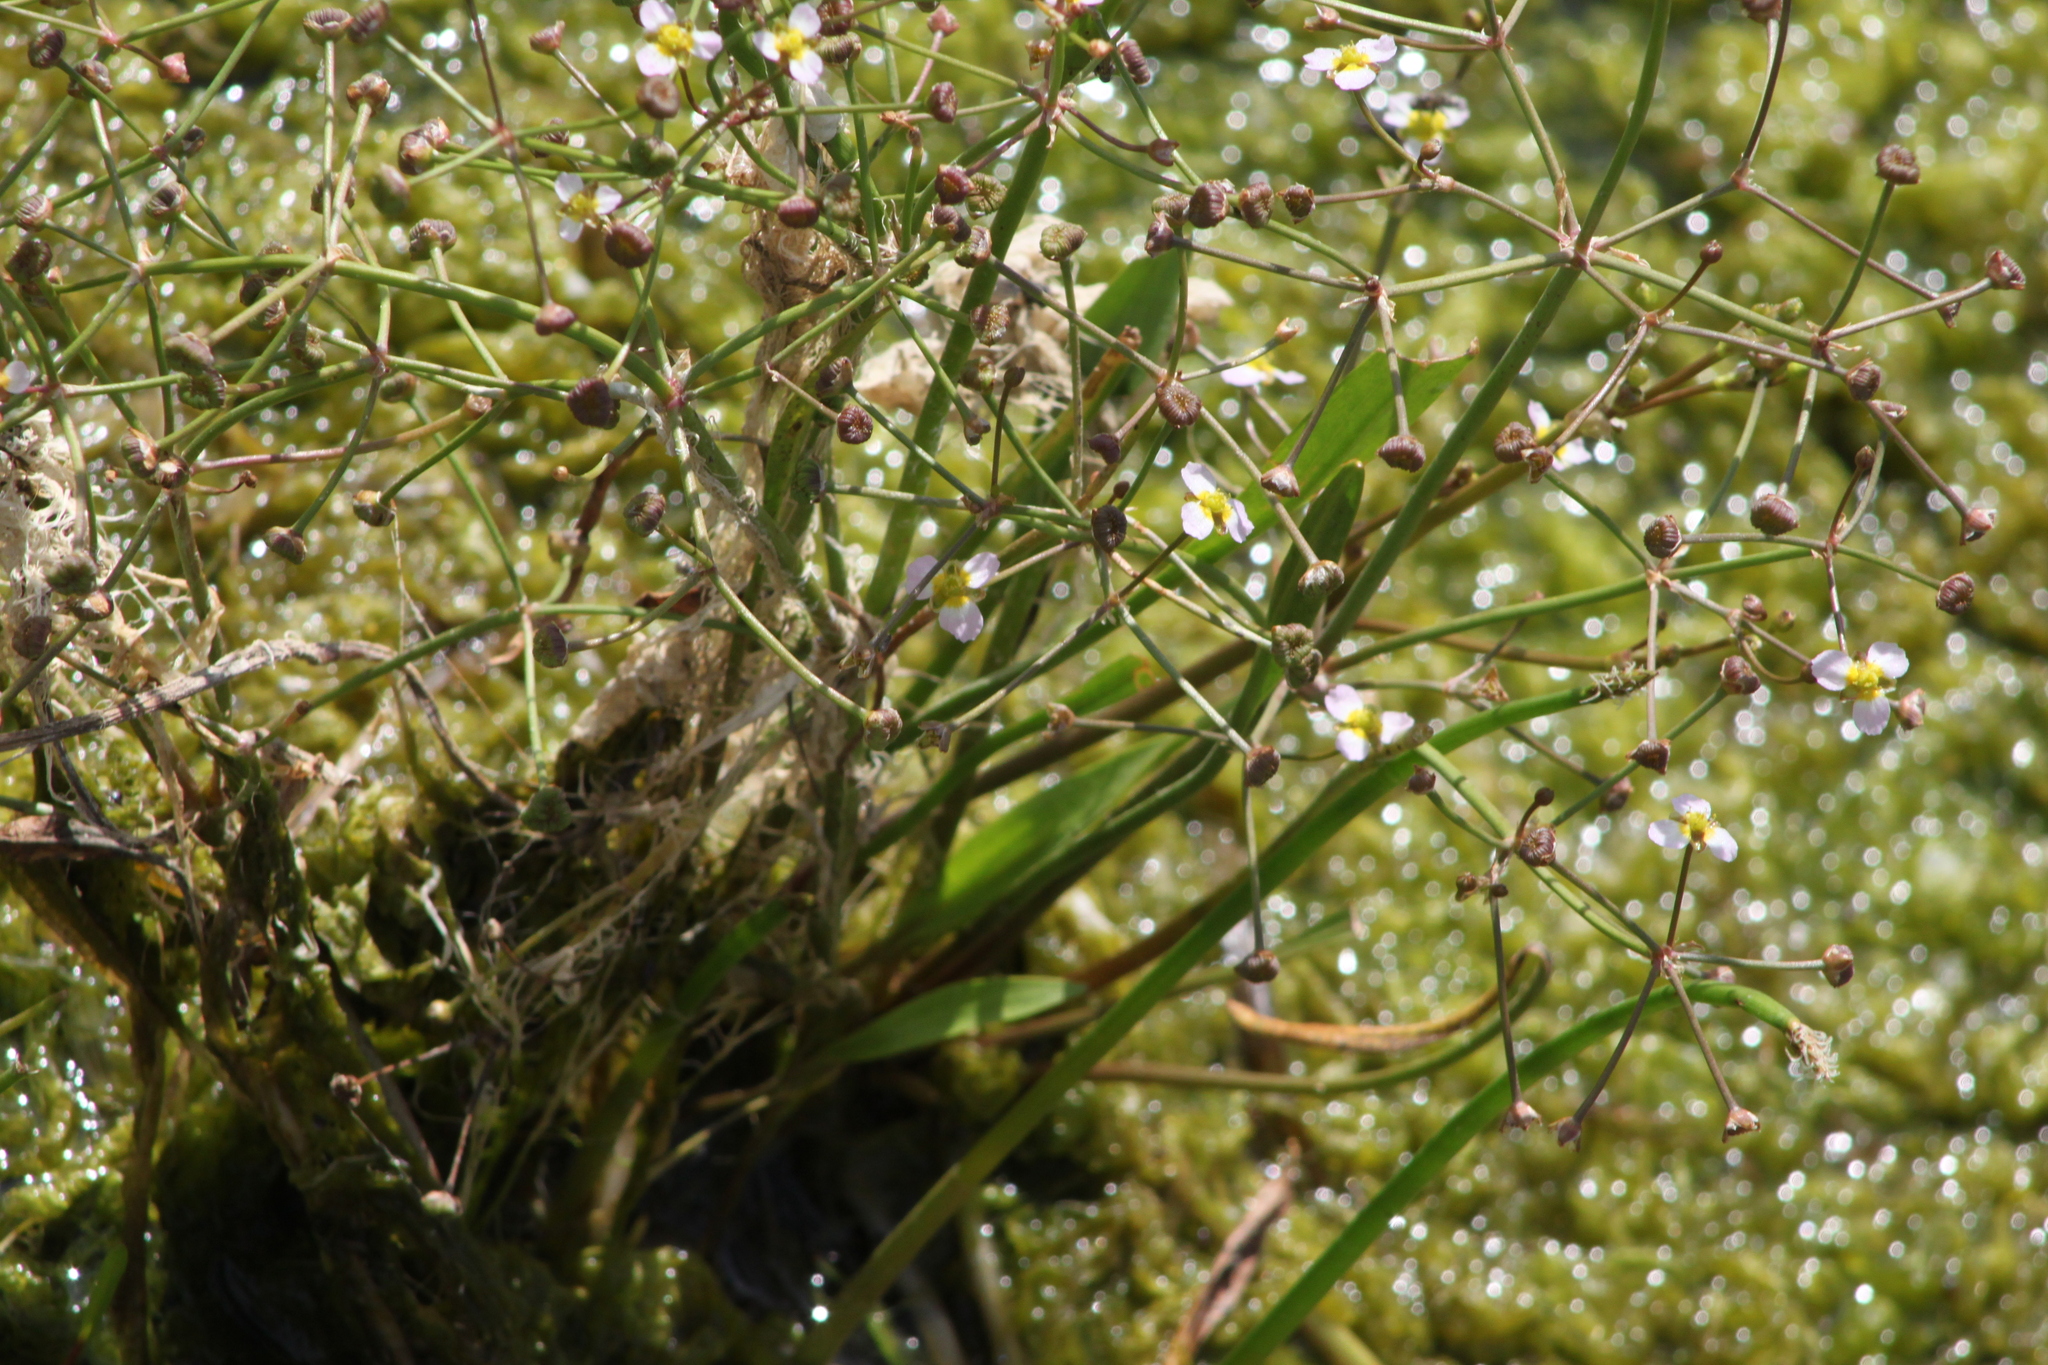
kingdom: Plantae
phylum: Tracheophyta
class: Liliopsida
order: Alismatales
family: Alismataceae
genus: Alisma
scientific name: Alisma plantago-aquatica
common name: Water-plantain
